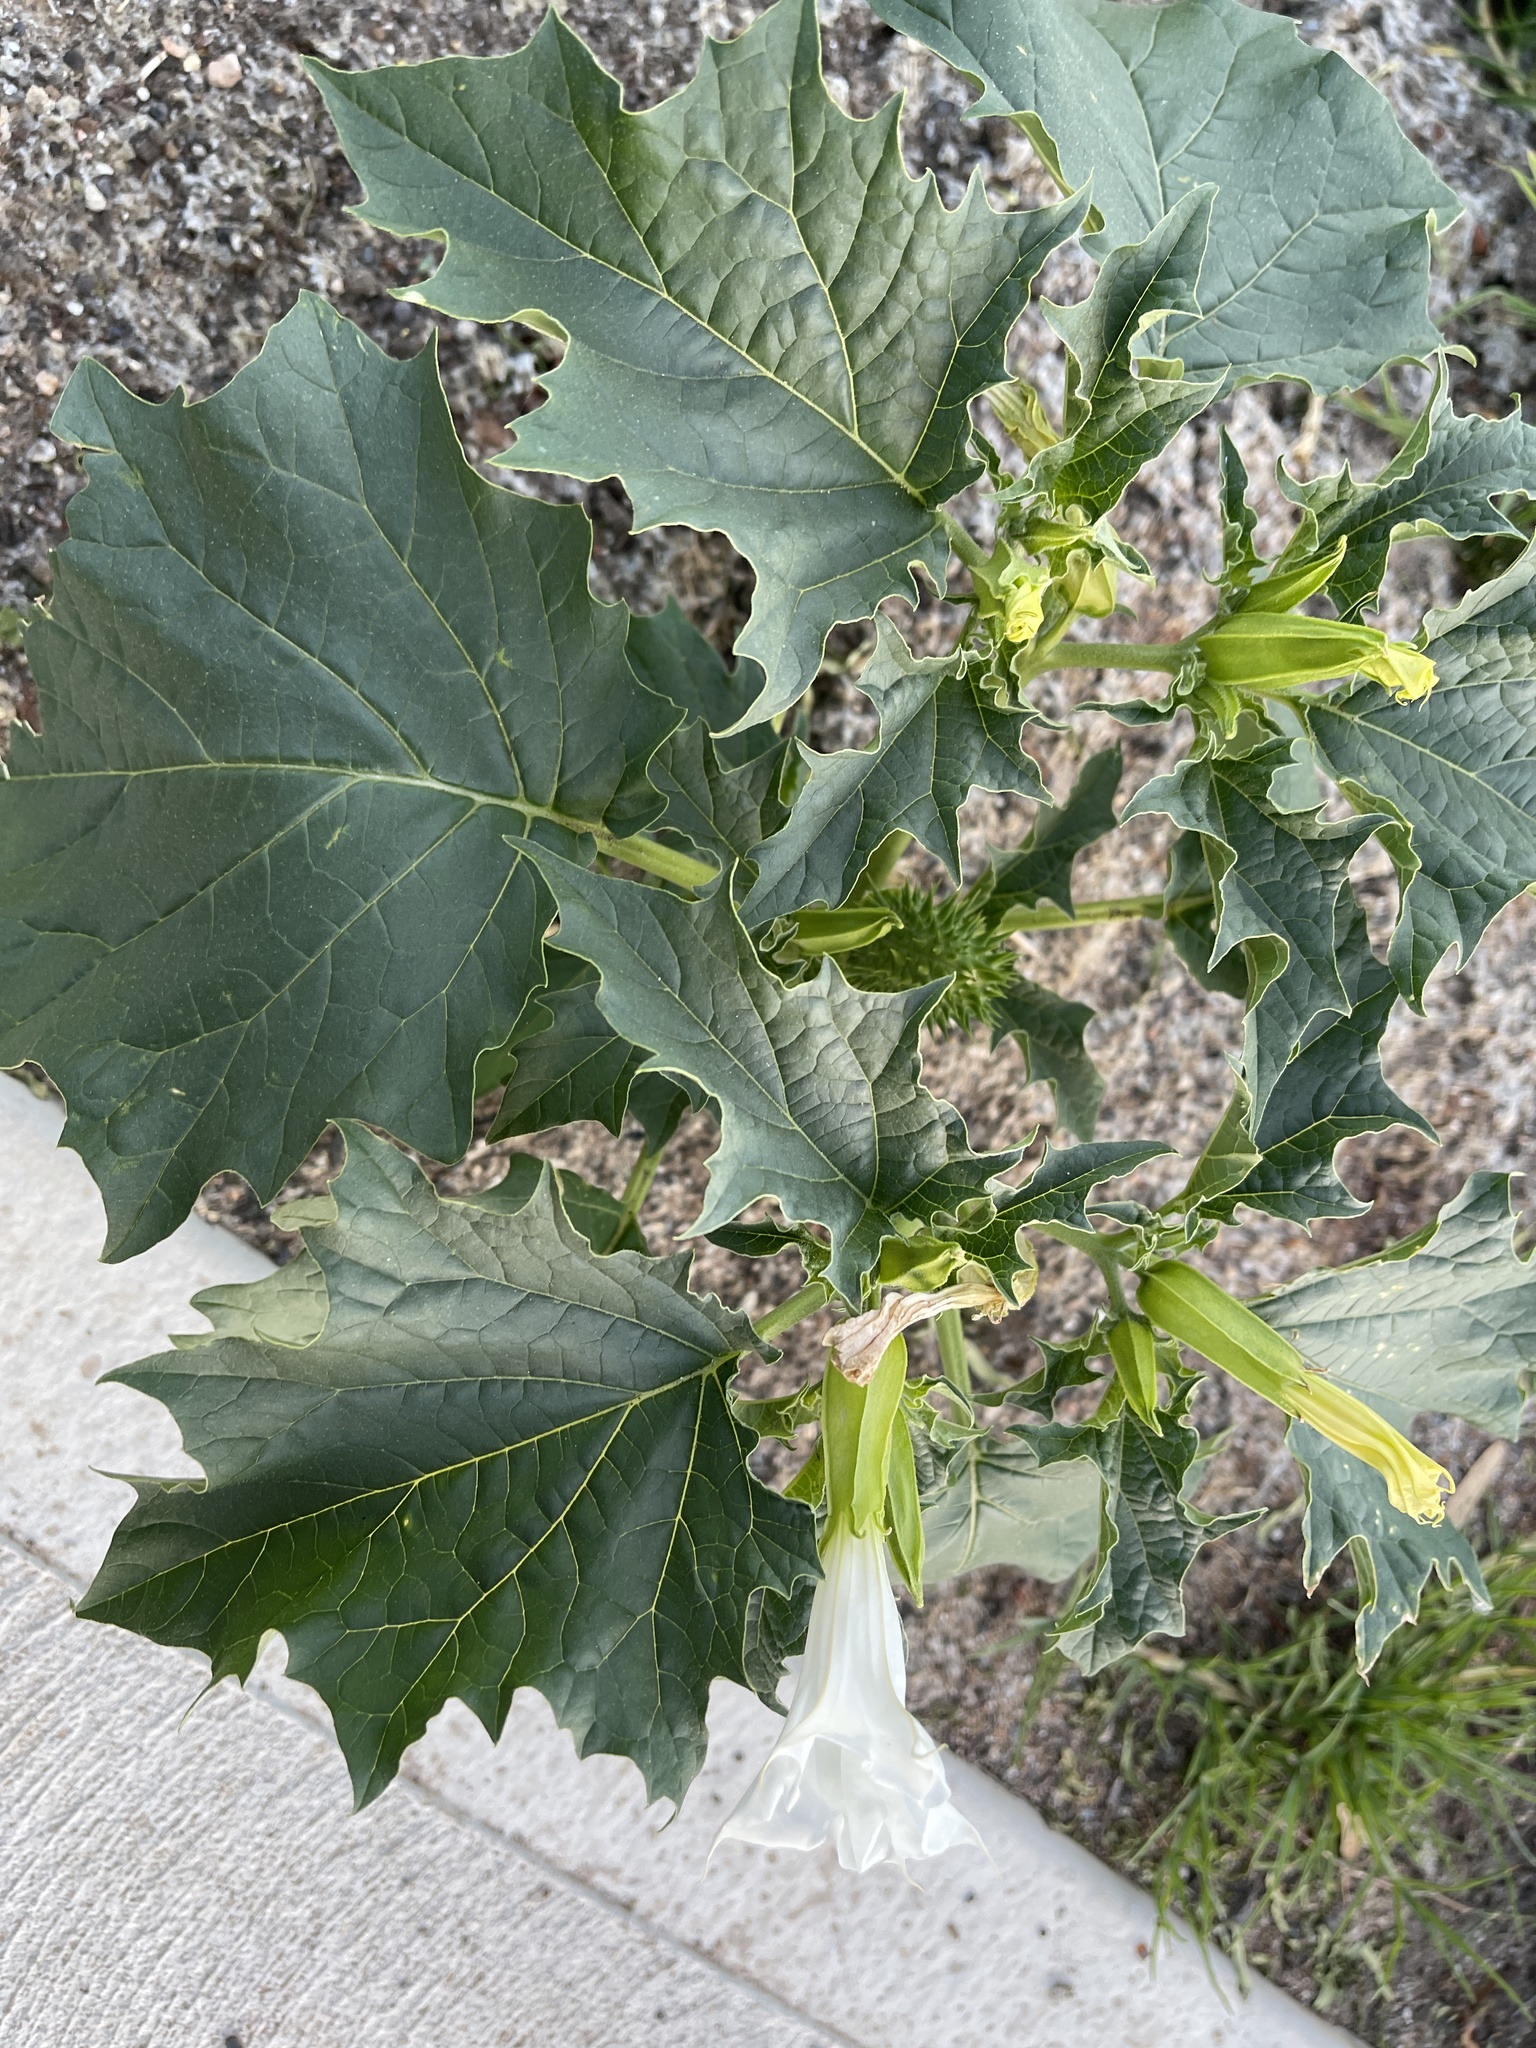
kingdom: Plantae
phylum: Tracheophyta
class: Magnoliopsida
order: Solanales
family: Solanaceae
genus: Datura
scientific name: Datura stramonium
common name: Thorn-apple
